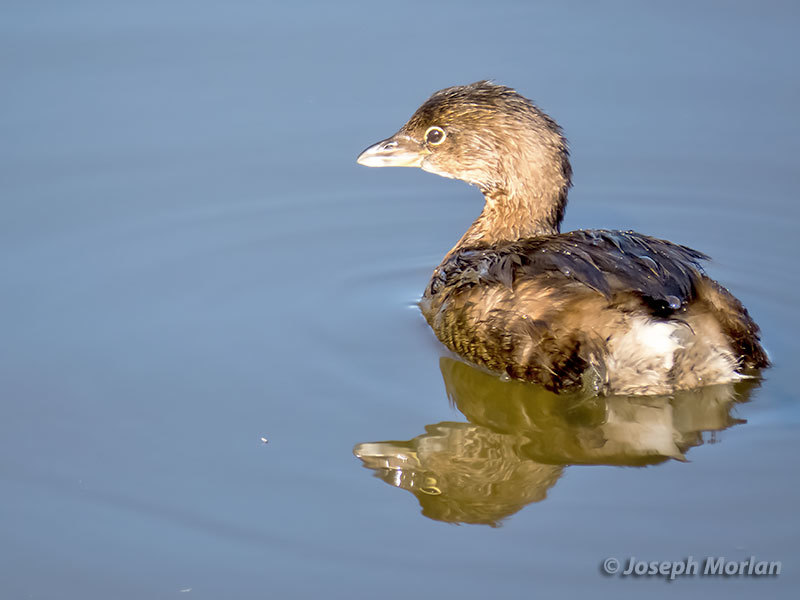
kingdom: Animalia
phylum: Chordata
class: Aves
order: Podicipediformes
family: Podicipedidae
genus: Podilymbus
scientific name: Podilymbus podiceps
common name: Pied-billed grebe
